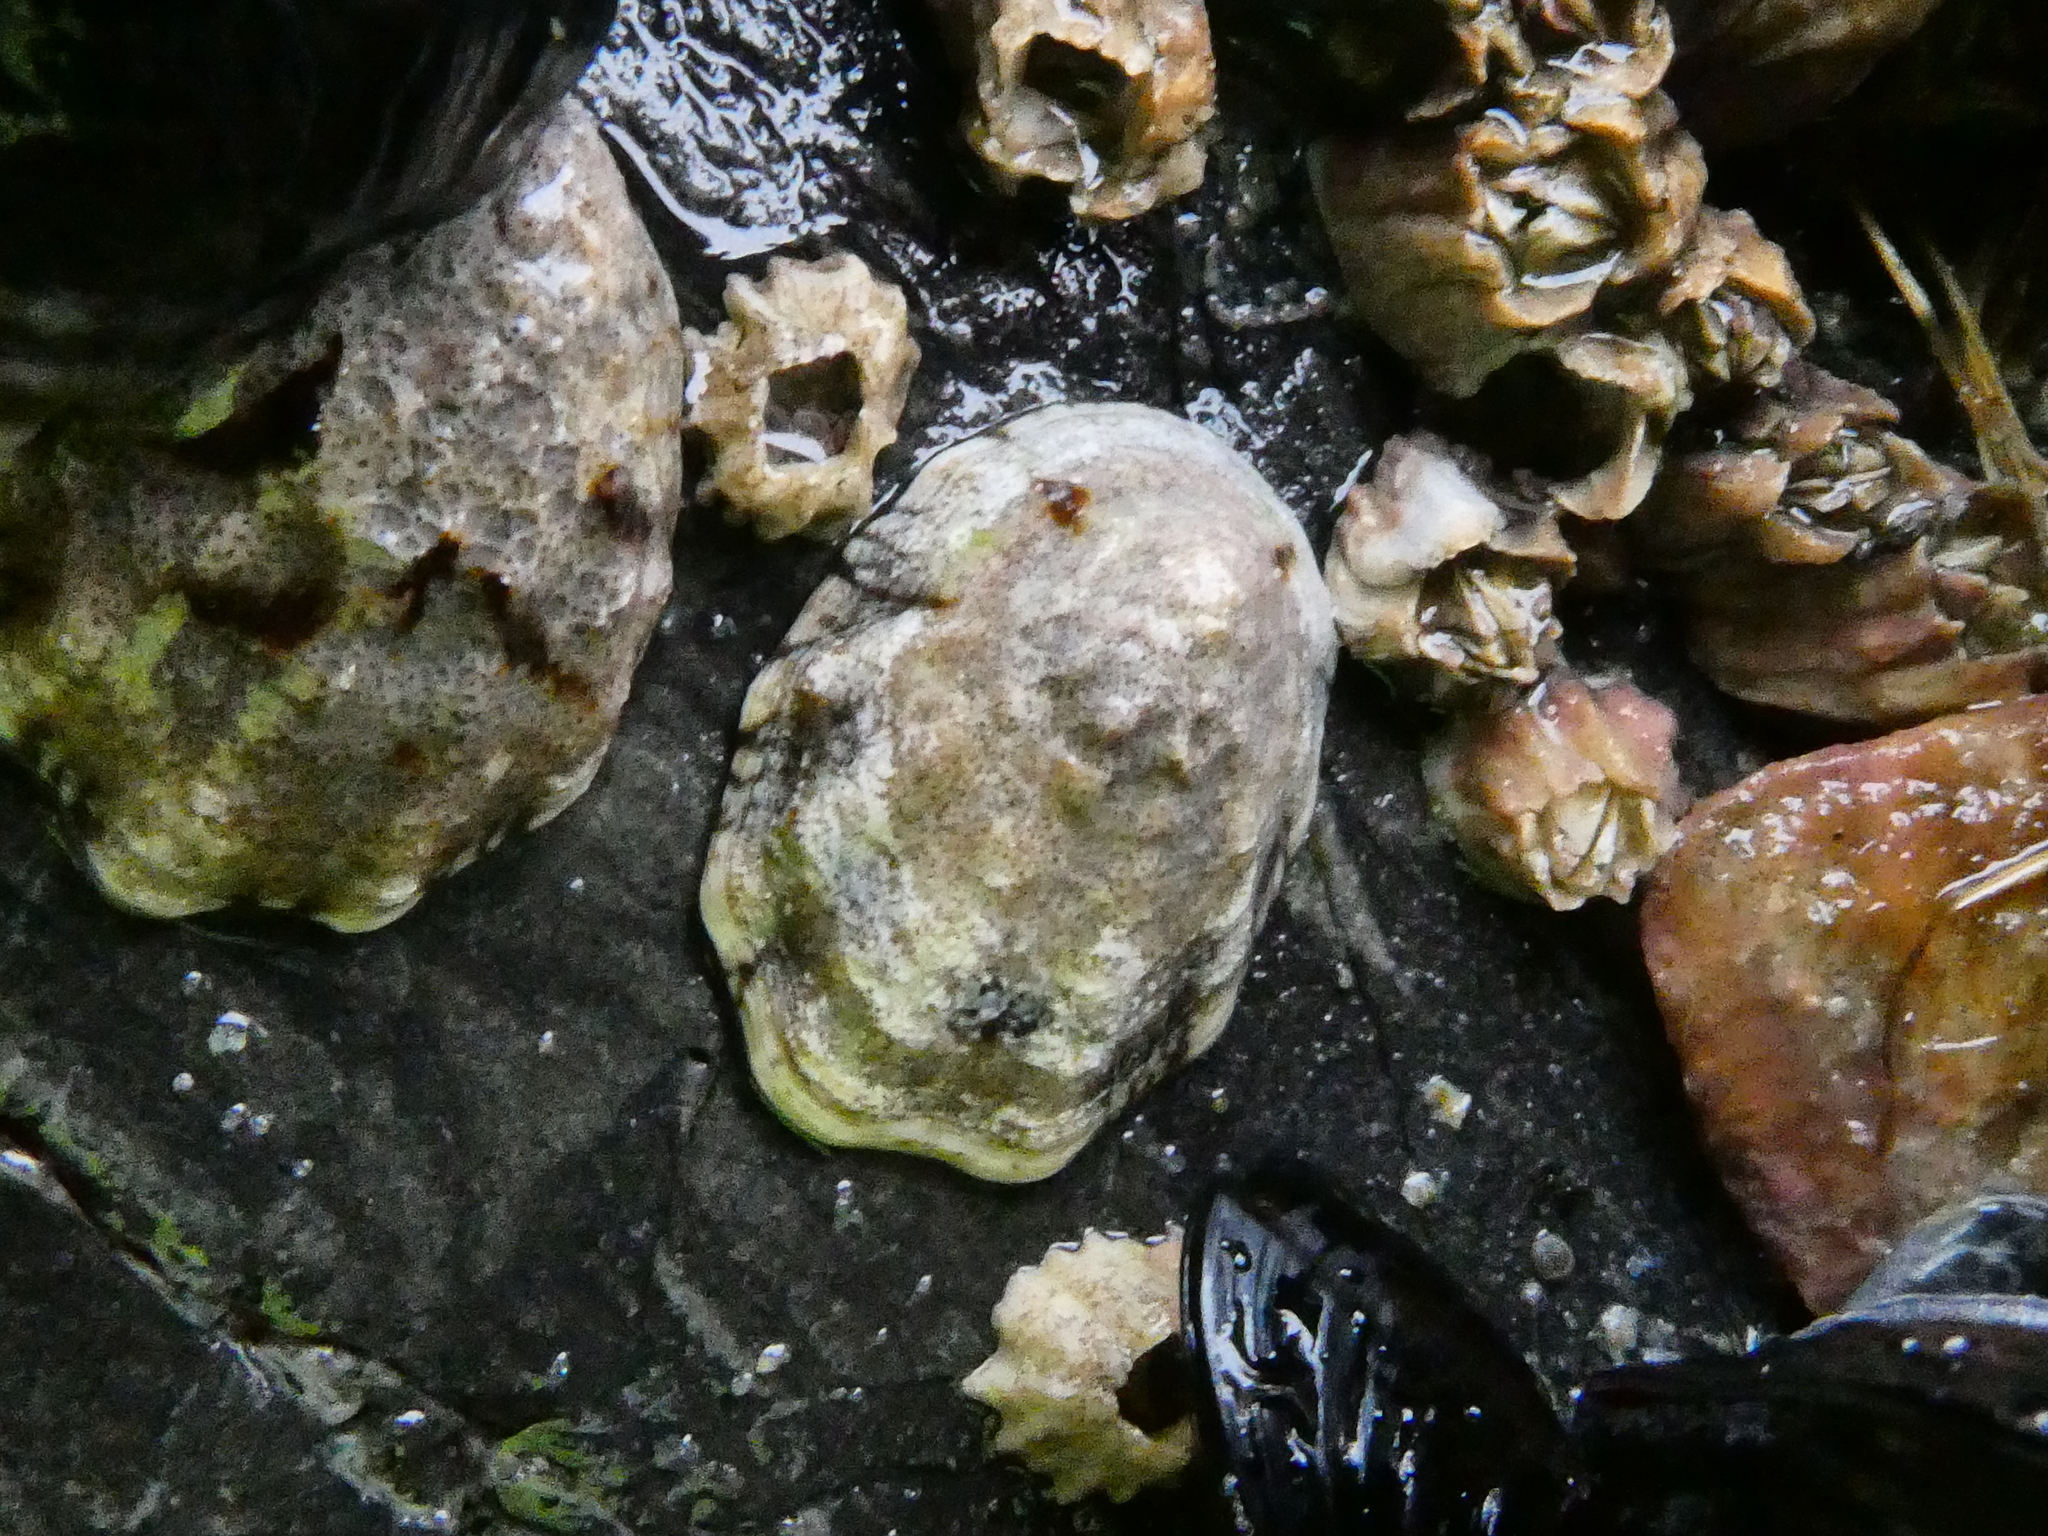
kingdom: Animalia
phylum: Mollusca
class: Gastropoda
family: Lottiidae
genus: Lottia
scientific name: Lottia digitalis
